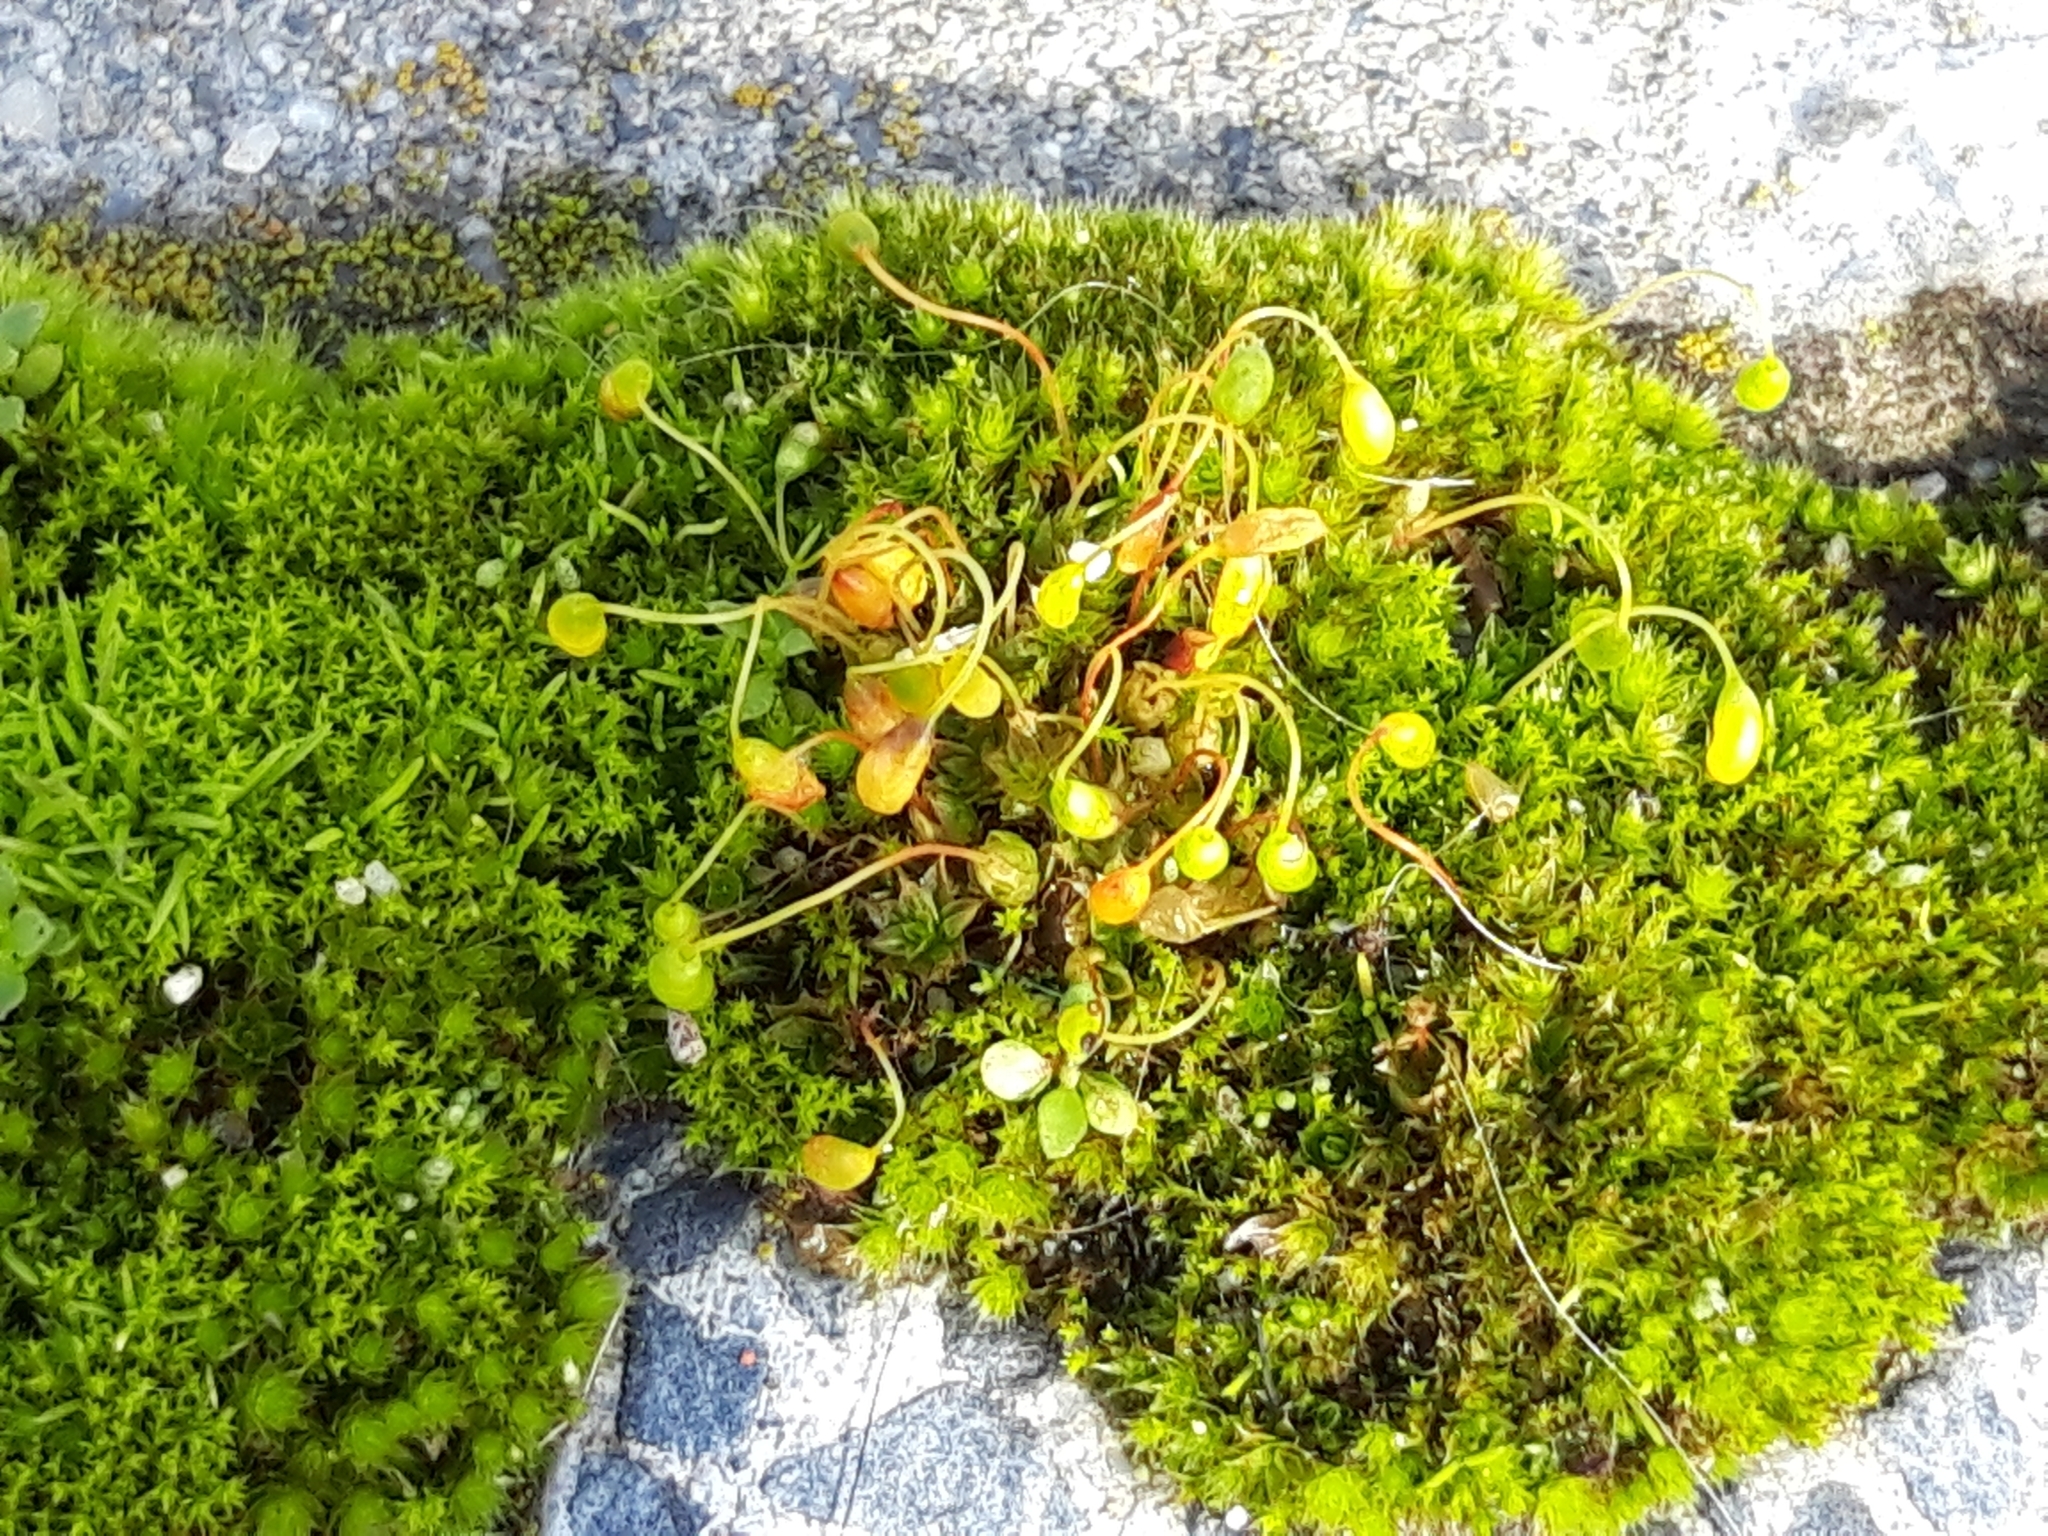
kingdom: Plantae
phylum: Bryophyta
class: Bryopsida
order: Funariales
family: Funariaceae
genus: Funaria
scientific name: Funaria hygrometrica
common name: Common cord moss
